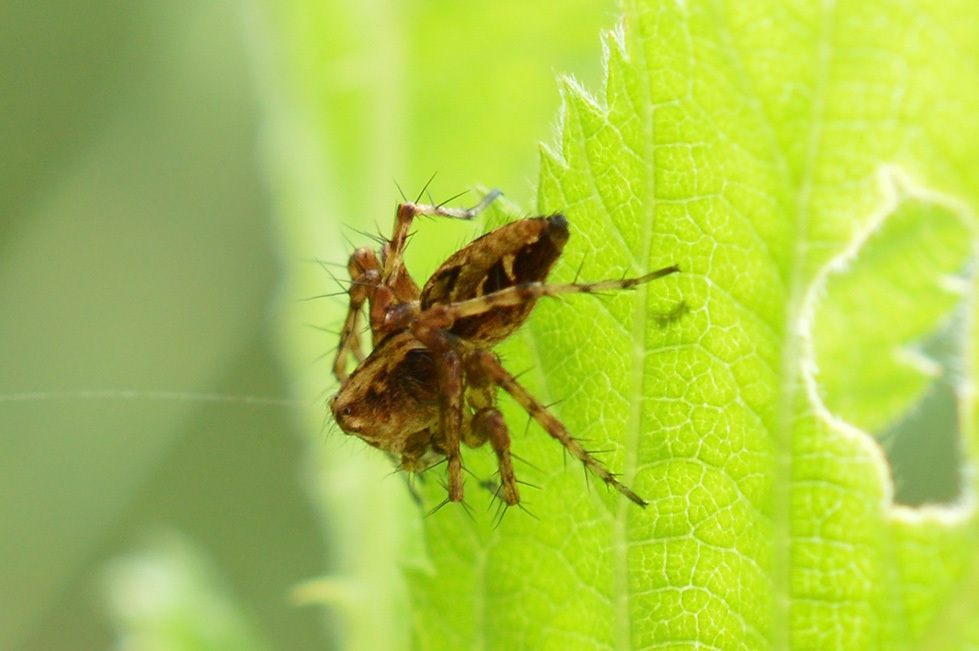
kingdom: Animalia
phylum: Arthropoda
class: Arachnida
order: Araneae
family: Oxyopidae
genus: Oxyopes
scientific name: Oxyopes heterophthalmus
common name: Lynx spider
